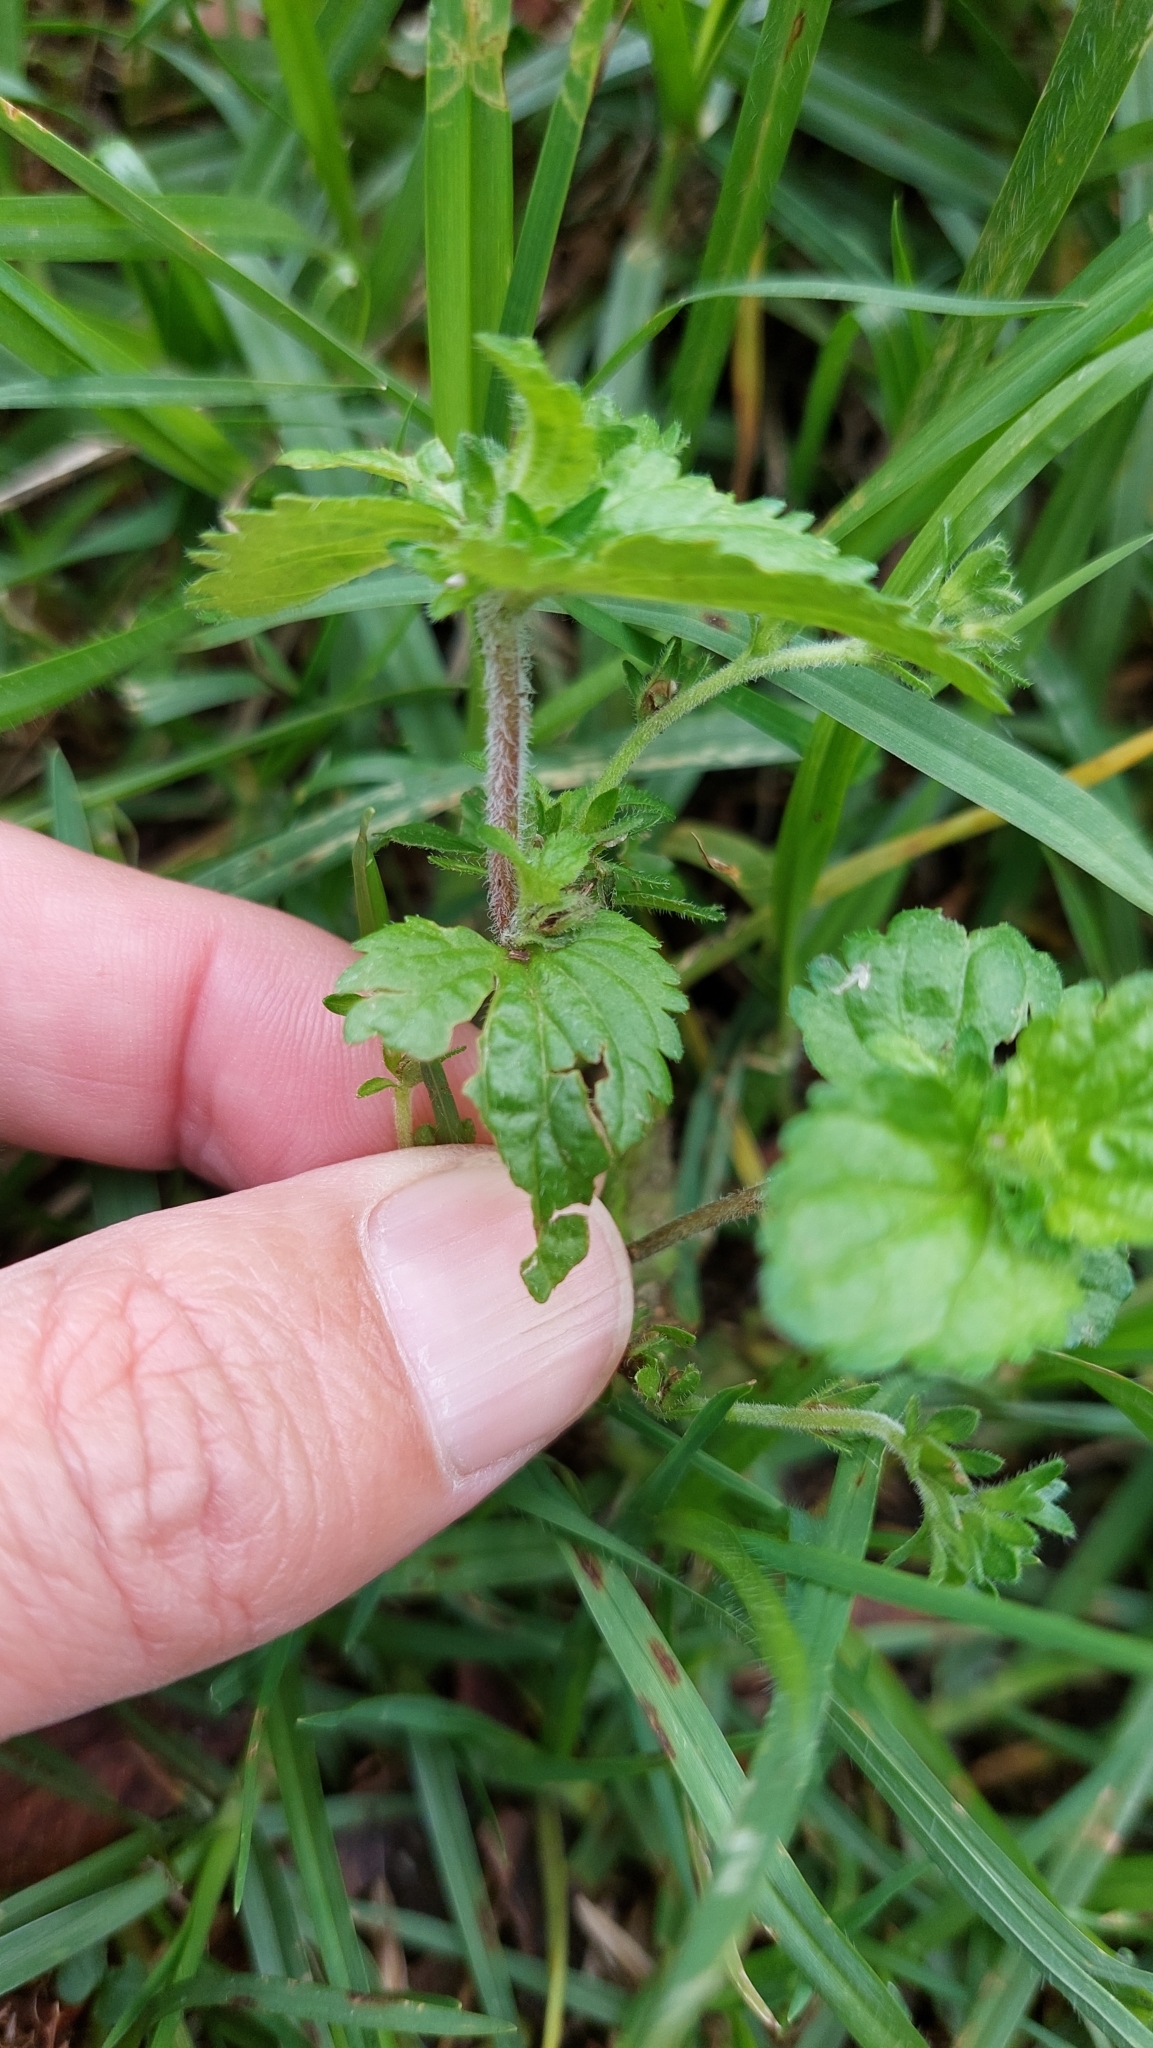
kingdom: Plantae
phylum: Tracheophyta
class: Magnoliopsida
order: Lamiales
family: Plantaginaceae
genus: Veronica
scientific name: Veronica javanica
